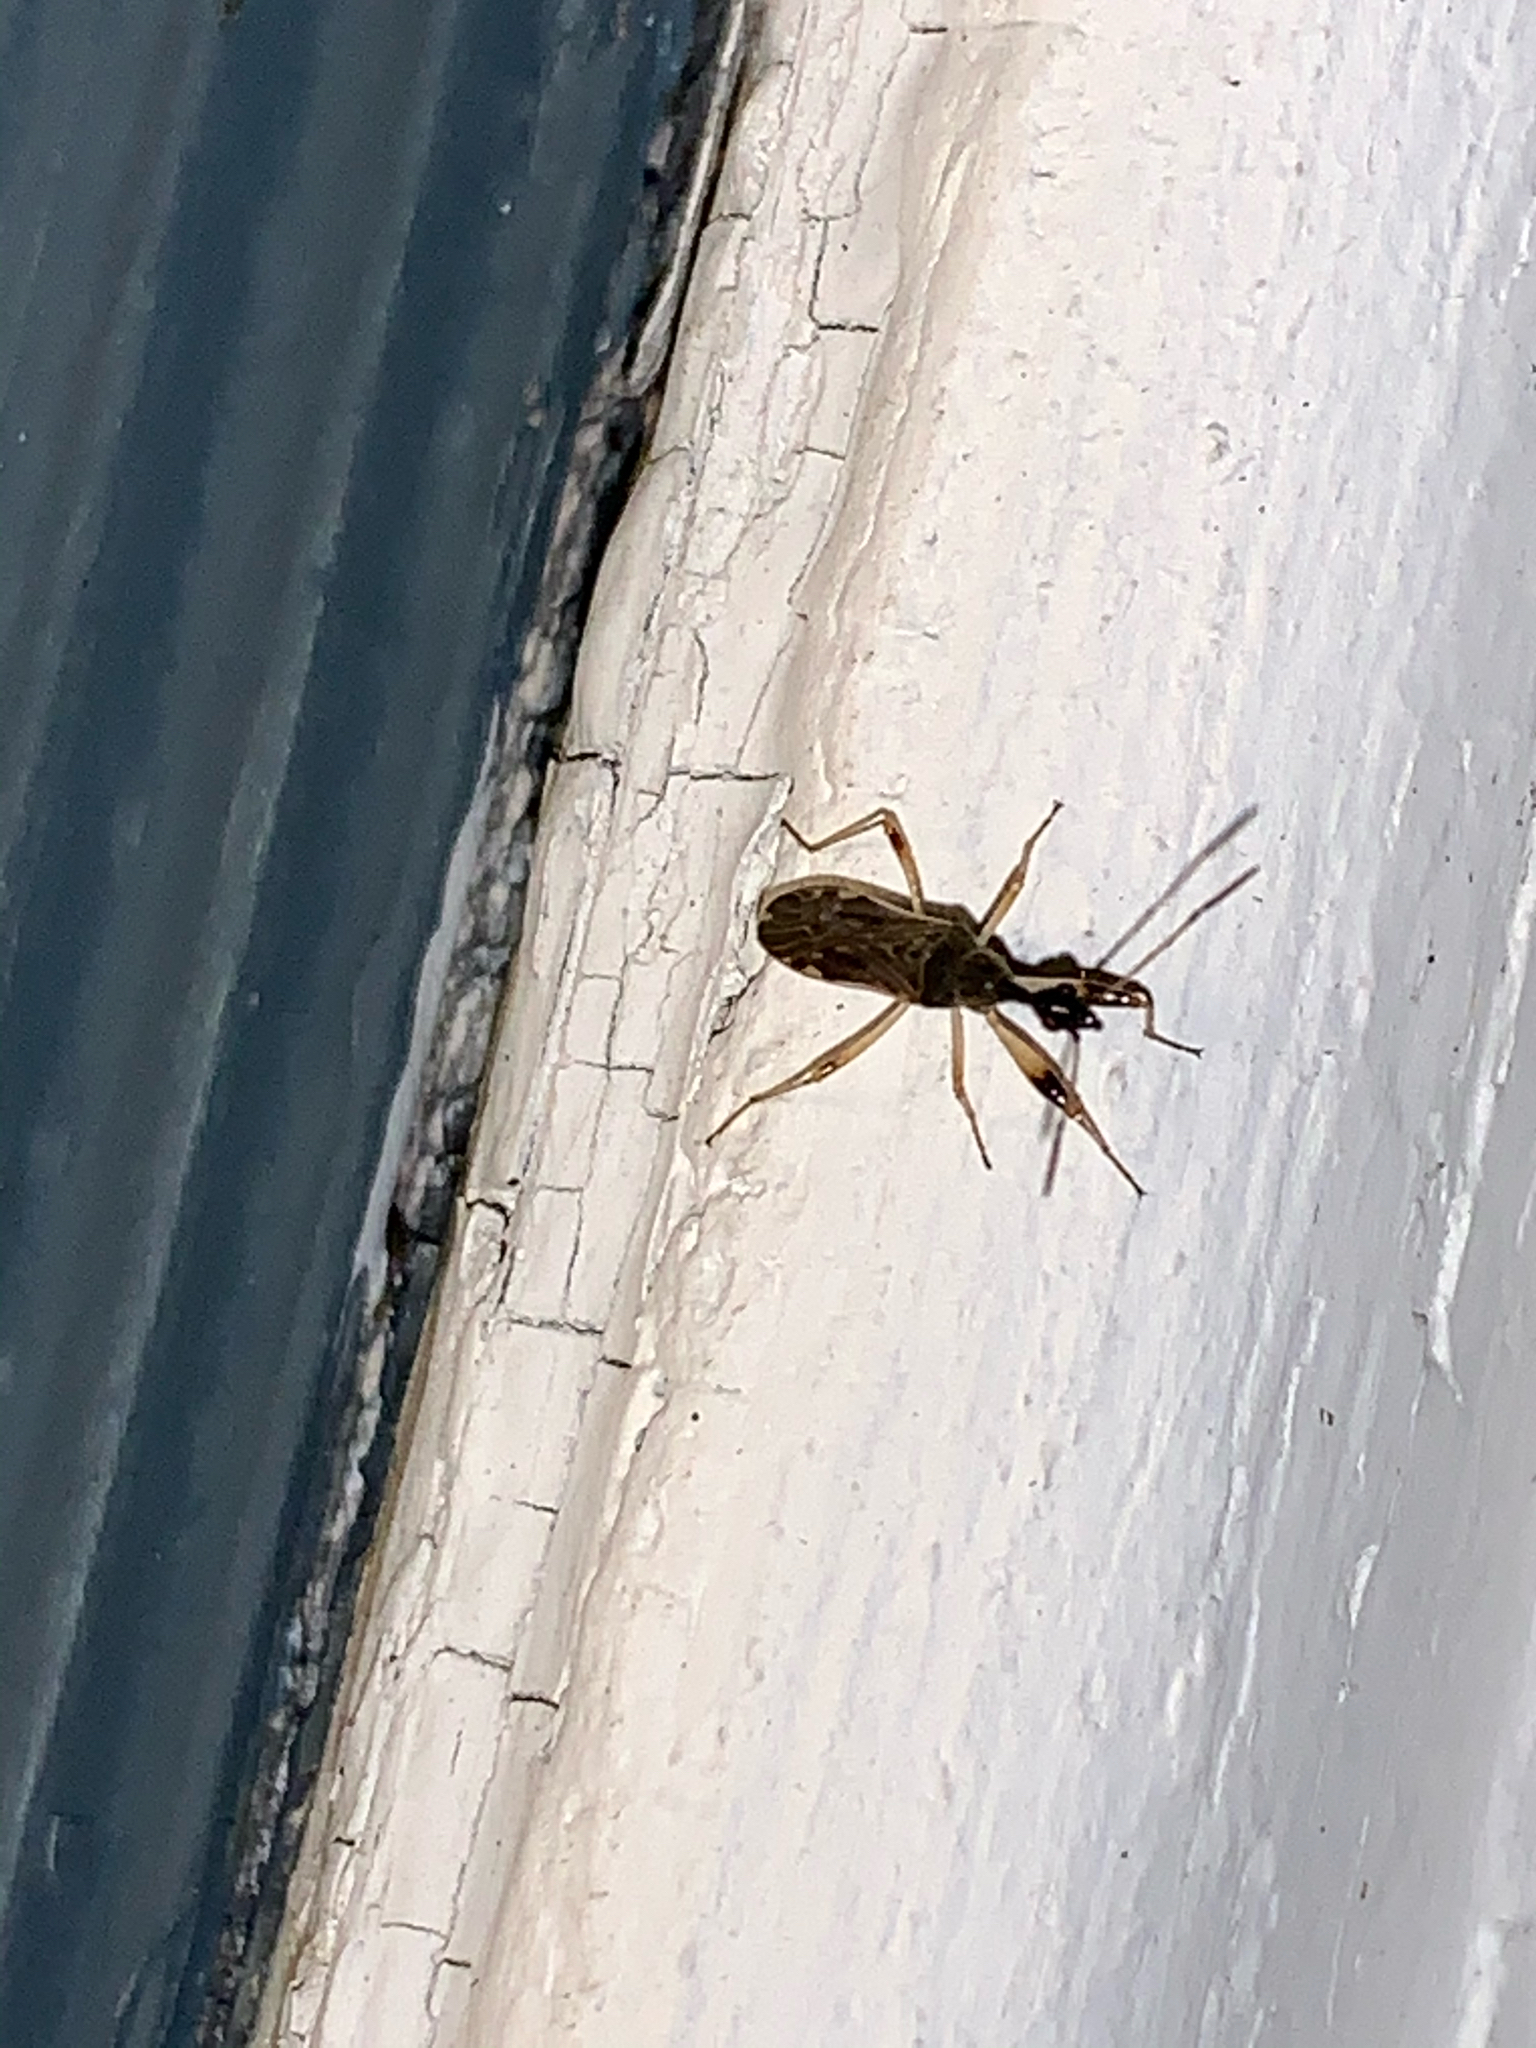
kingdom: Animalia
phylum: Arthropoda
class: Insecta
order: Hemiptera
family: Rhyparochromidae
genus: Myodocha
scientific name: Myodocha serripes
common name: Long-necked seed bug
